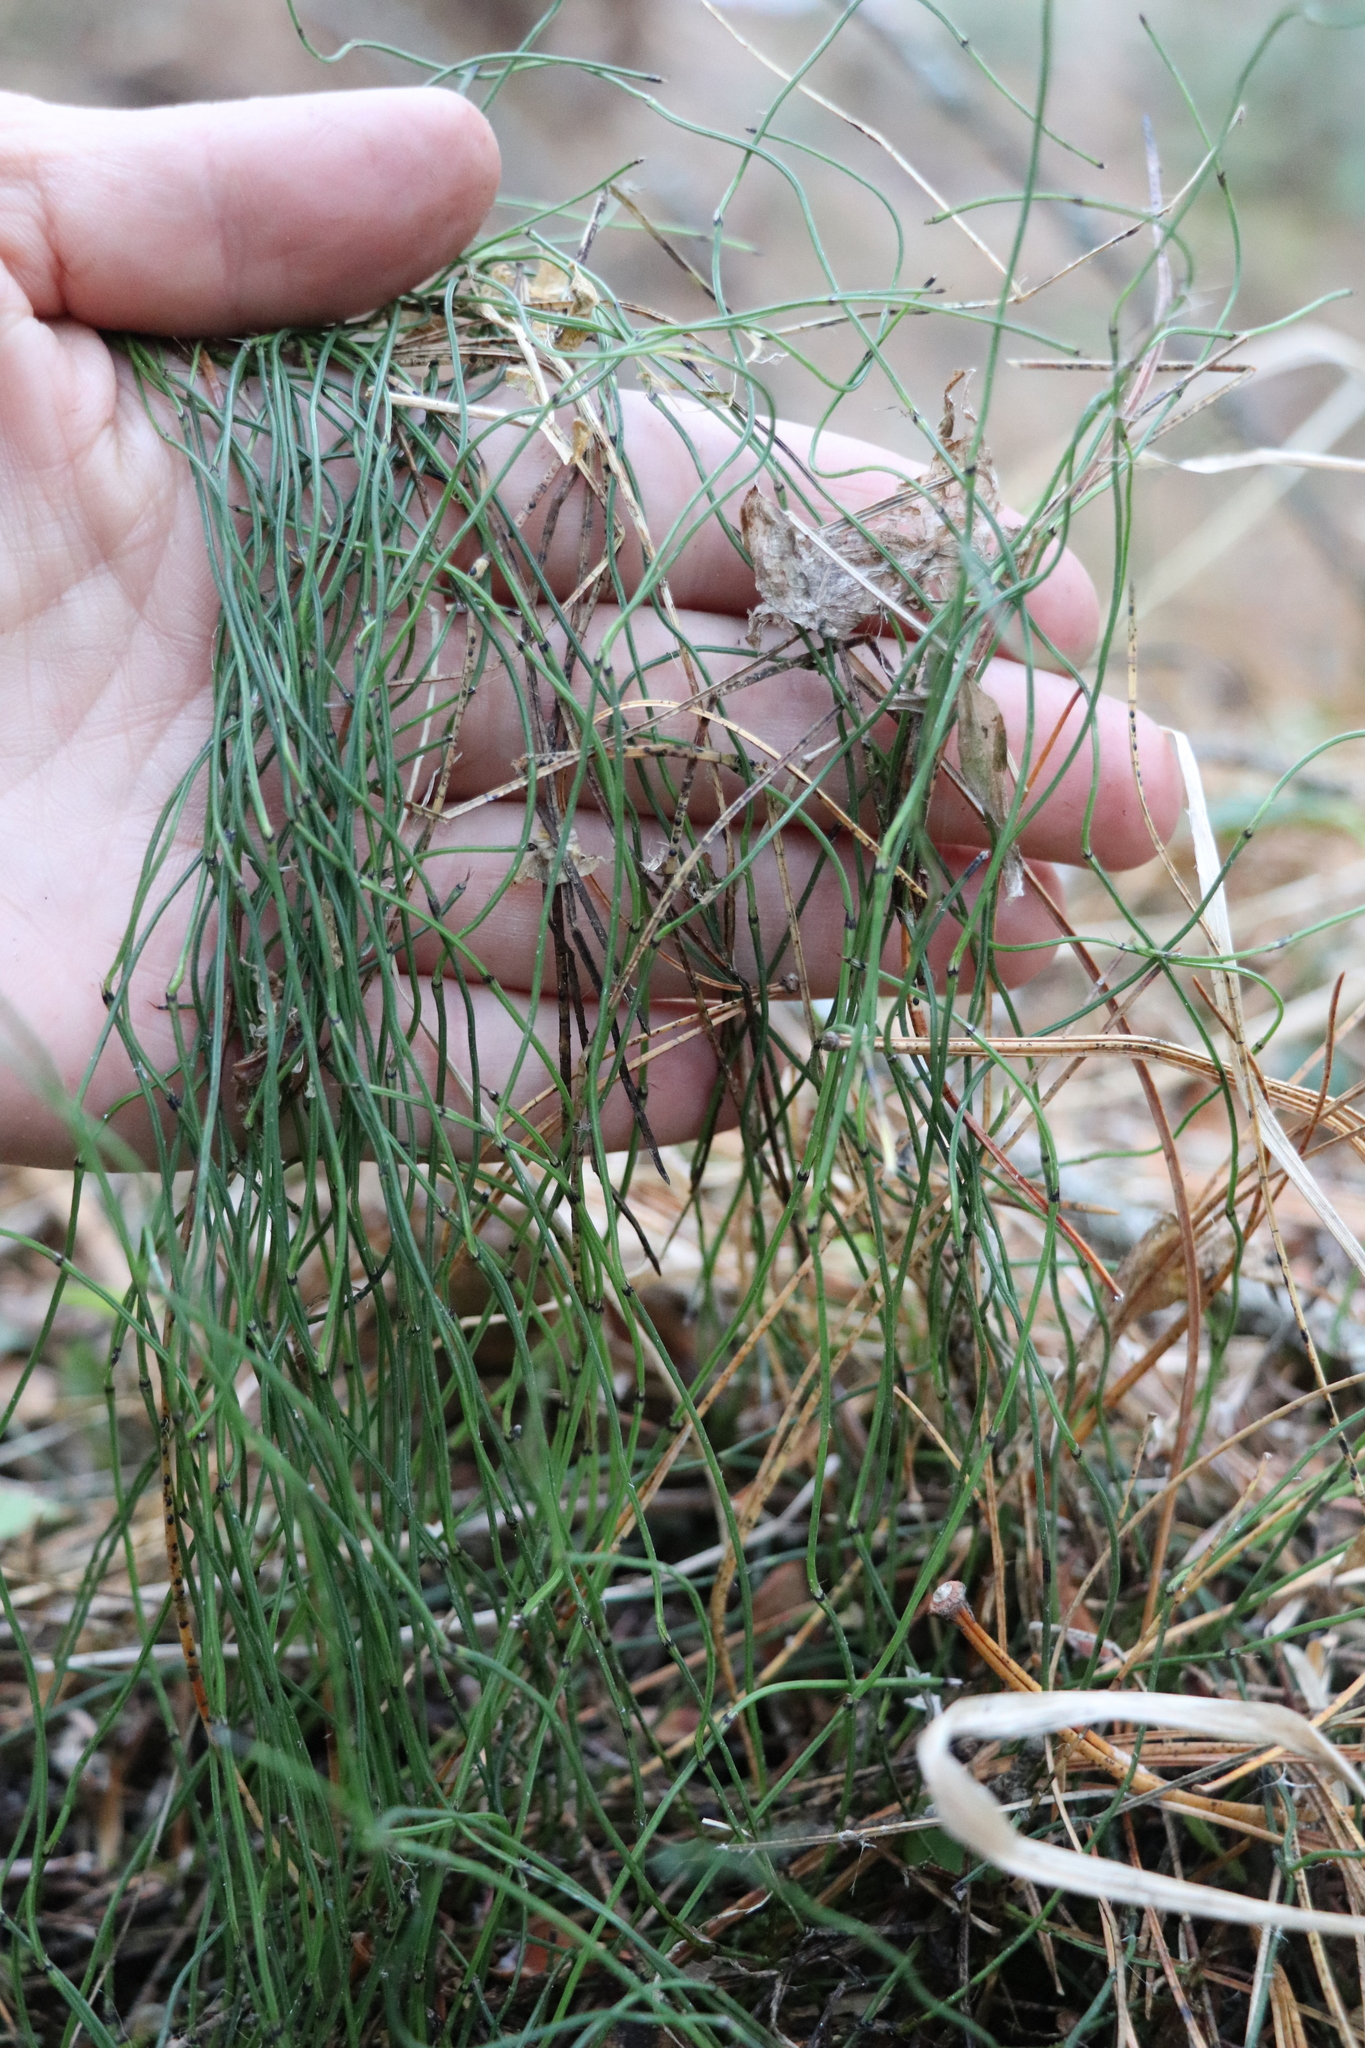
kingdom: Plantae
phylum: Tracheophyta
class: Polypodiopsida
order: Equisetales
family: Equisetaceae
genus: Equisetum
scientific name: Equisetum scirpoides
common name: Delicate horsetail
